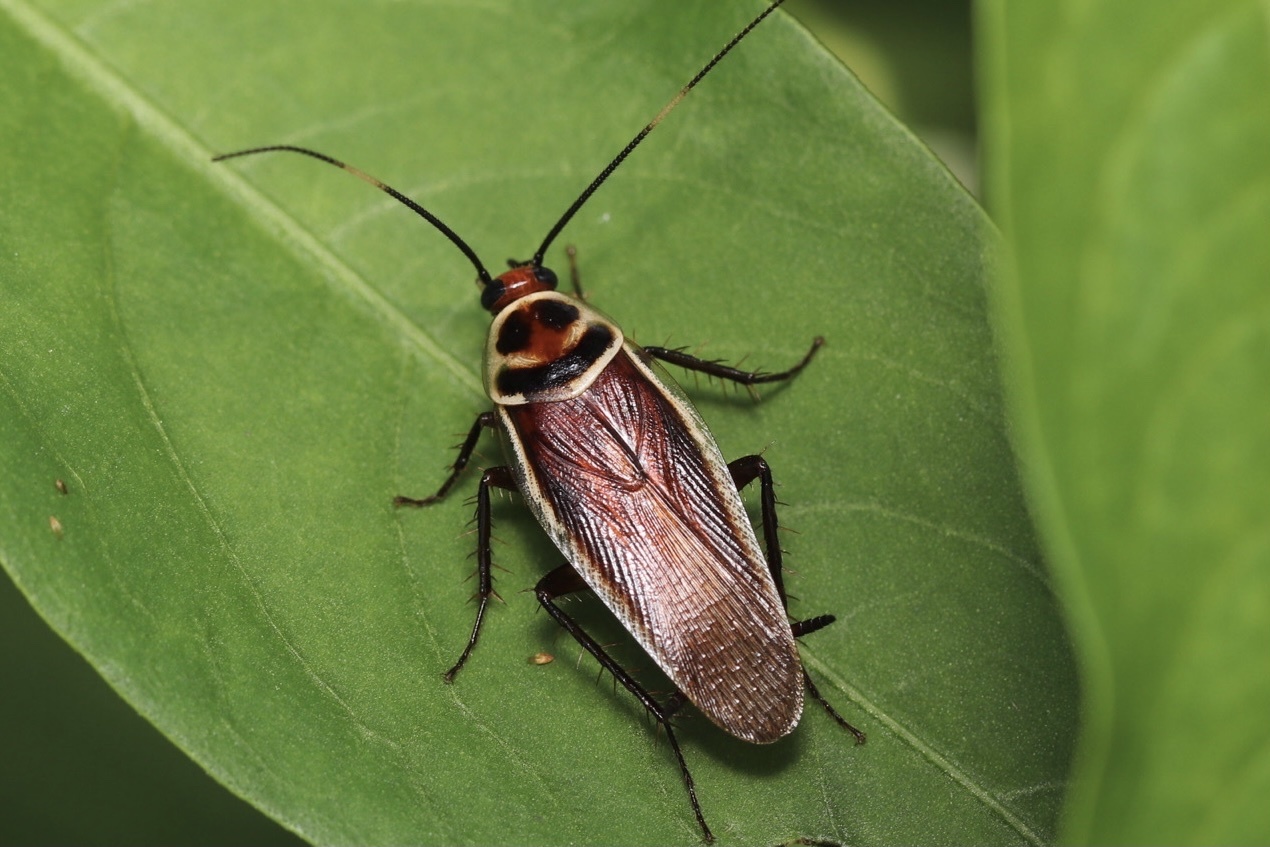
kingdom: Animalia
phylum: Arthropoda
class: Insecta
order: Blattodea
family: Ectobiidae
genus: Pseudomops
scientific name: Pseudomops interceptus
